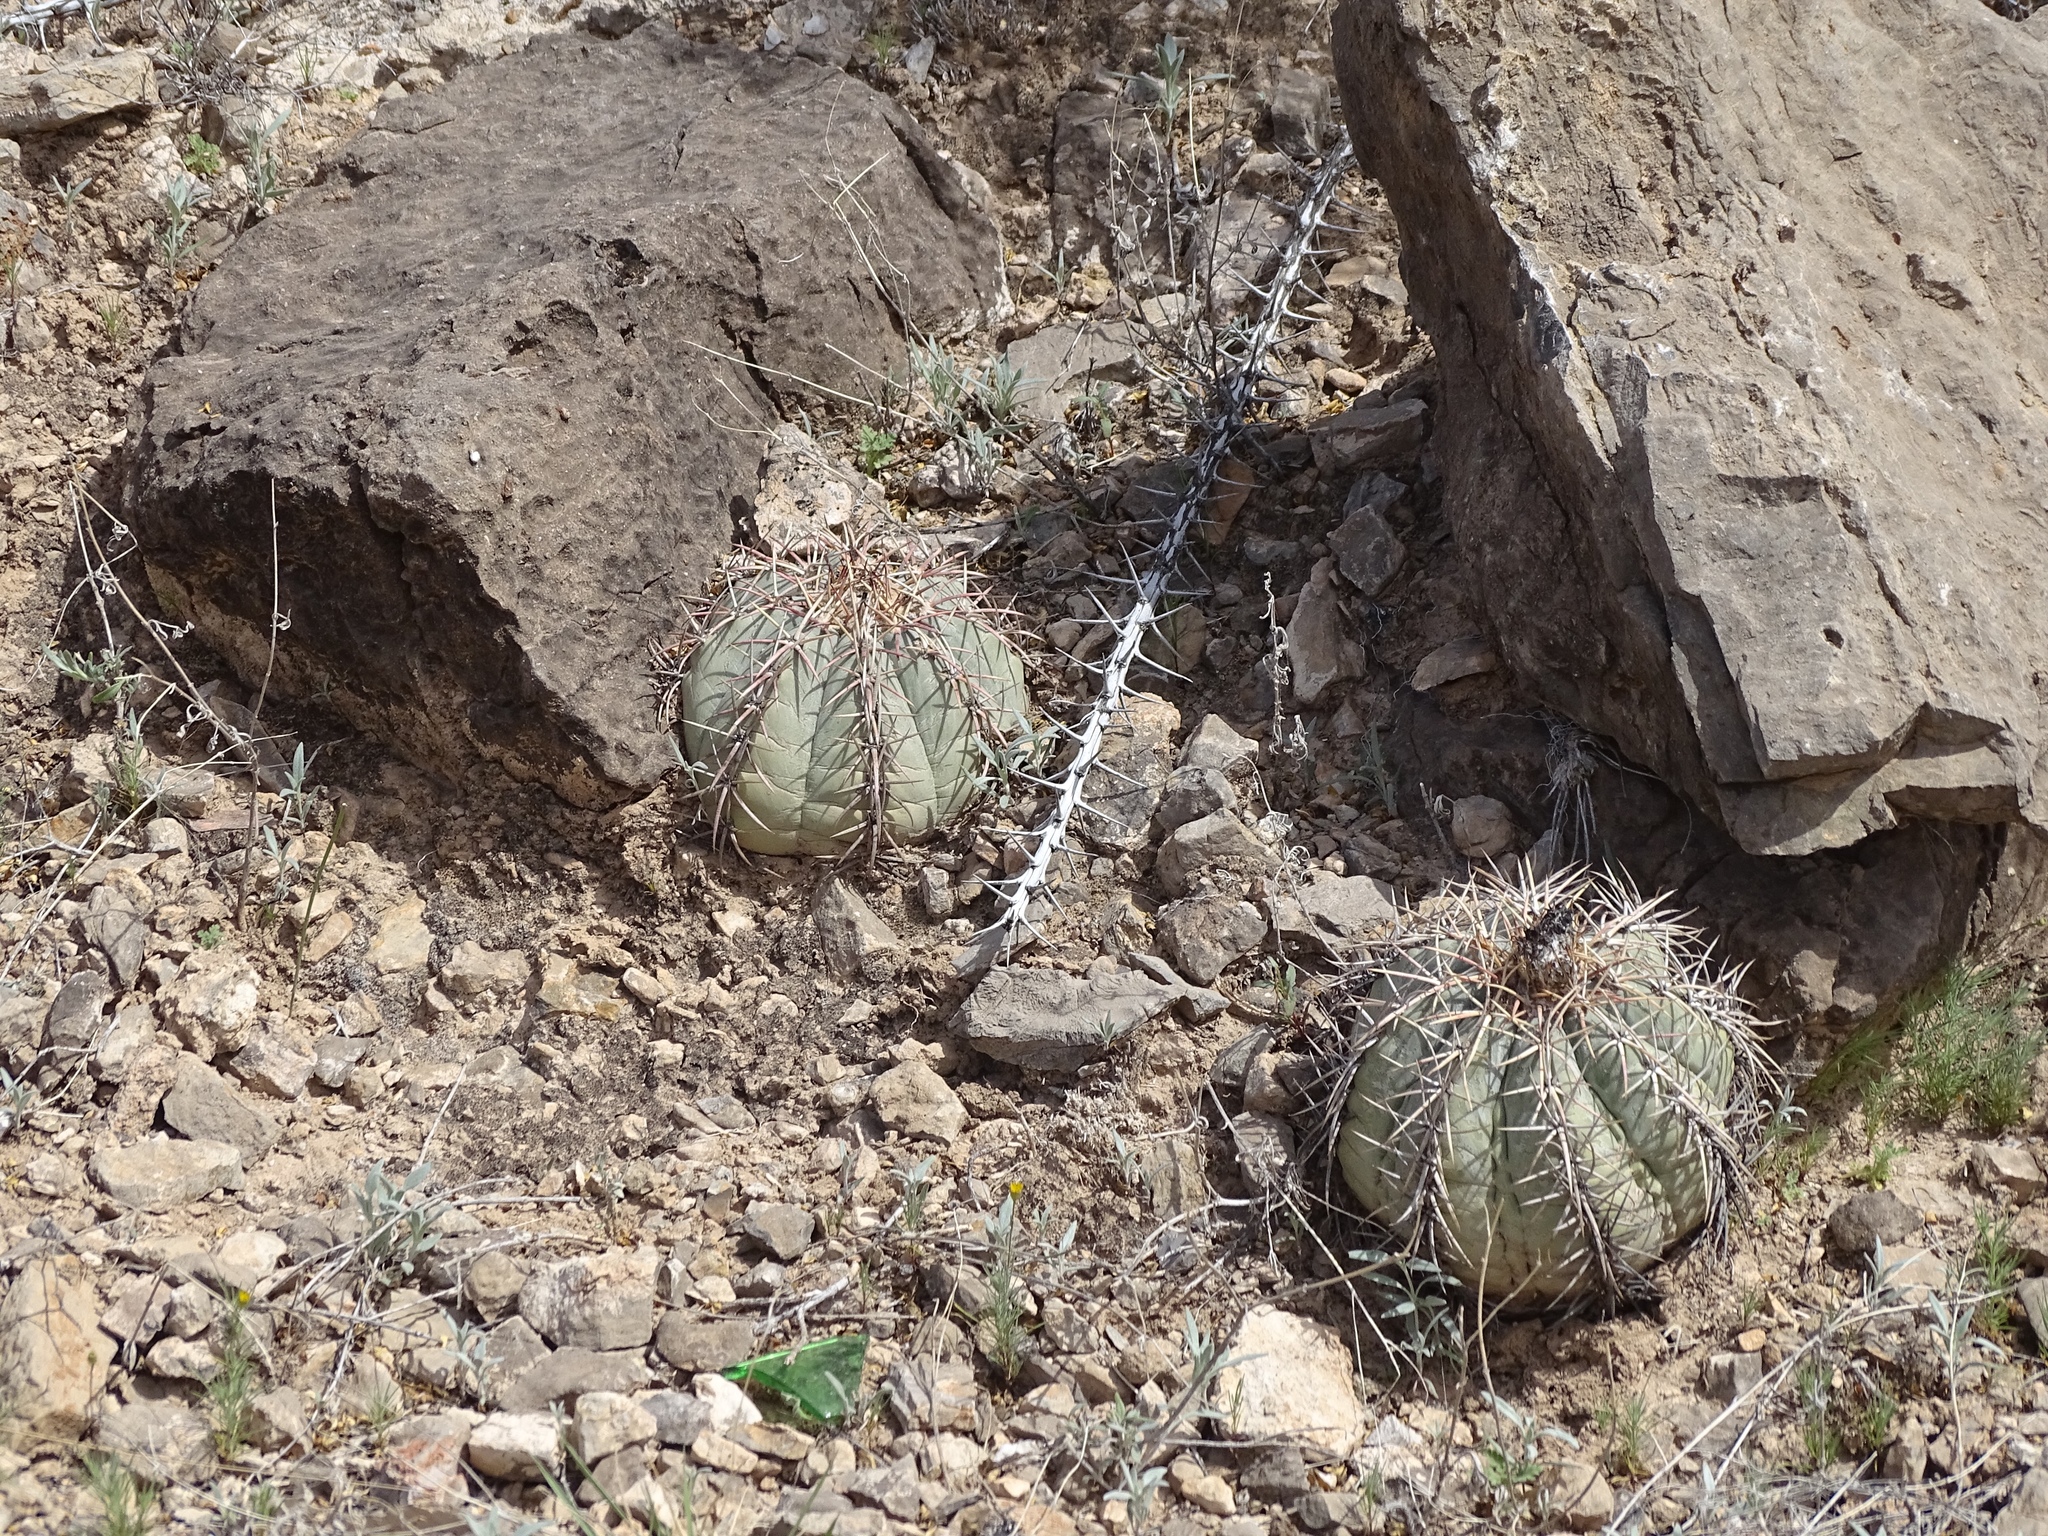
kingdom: Plantae
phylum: Tracheophyta
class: Magnoliopsida
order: Caryophyllales
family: Cactaceae
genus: Echinocactus
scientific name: Echinocactus horizonthalonius
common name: Devilshead
